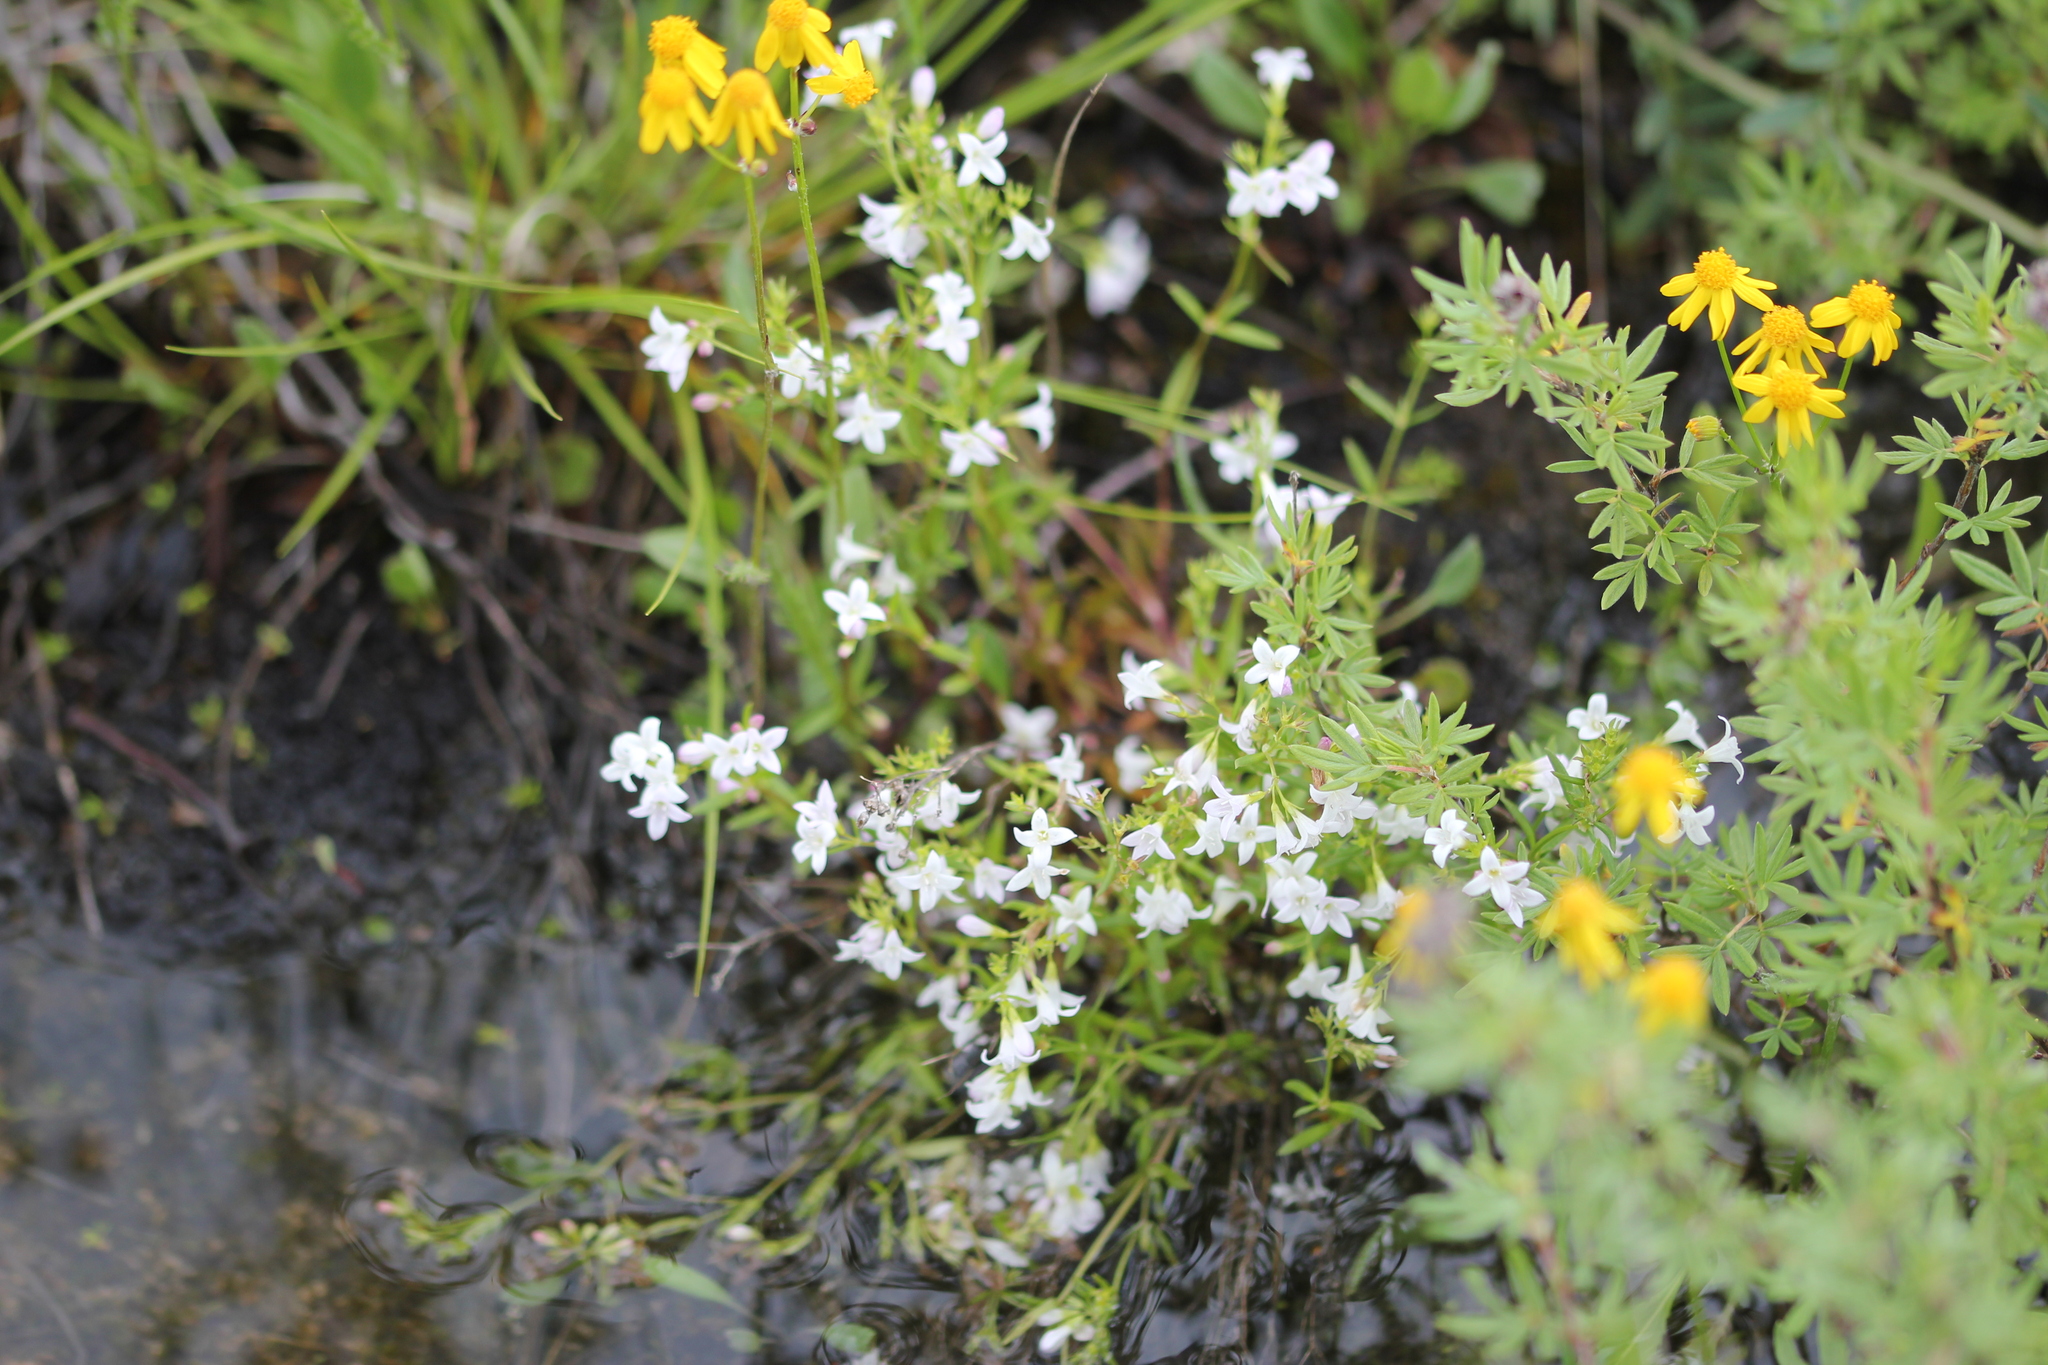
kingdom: Plantae
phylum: Tracheophyta
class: Magnoliopsida
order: Gentianales
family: Rubiaceae
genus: Houstonia
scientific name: Houstonia longifolia
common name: Long-leaved bluets
